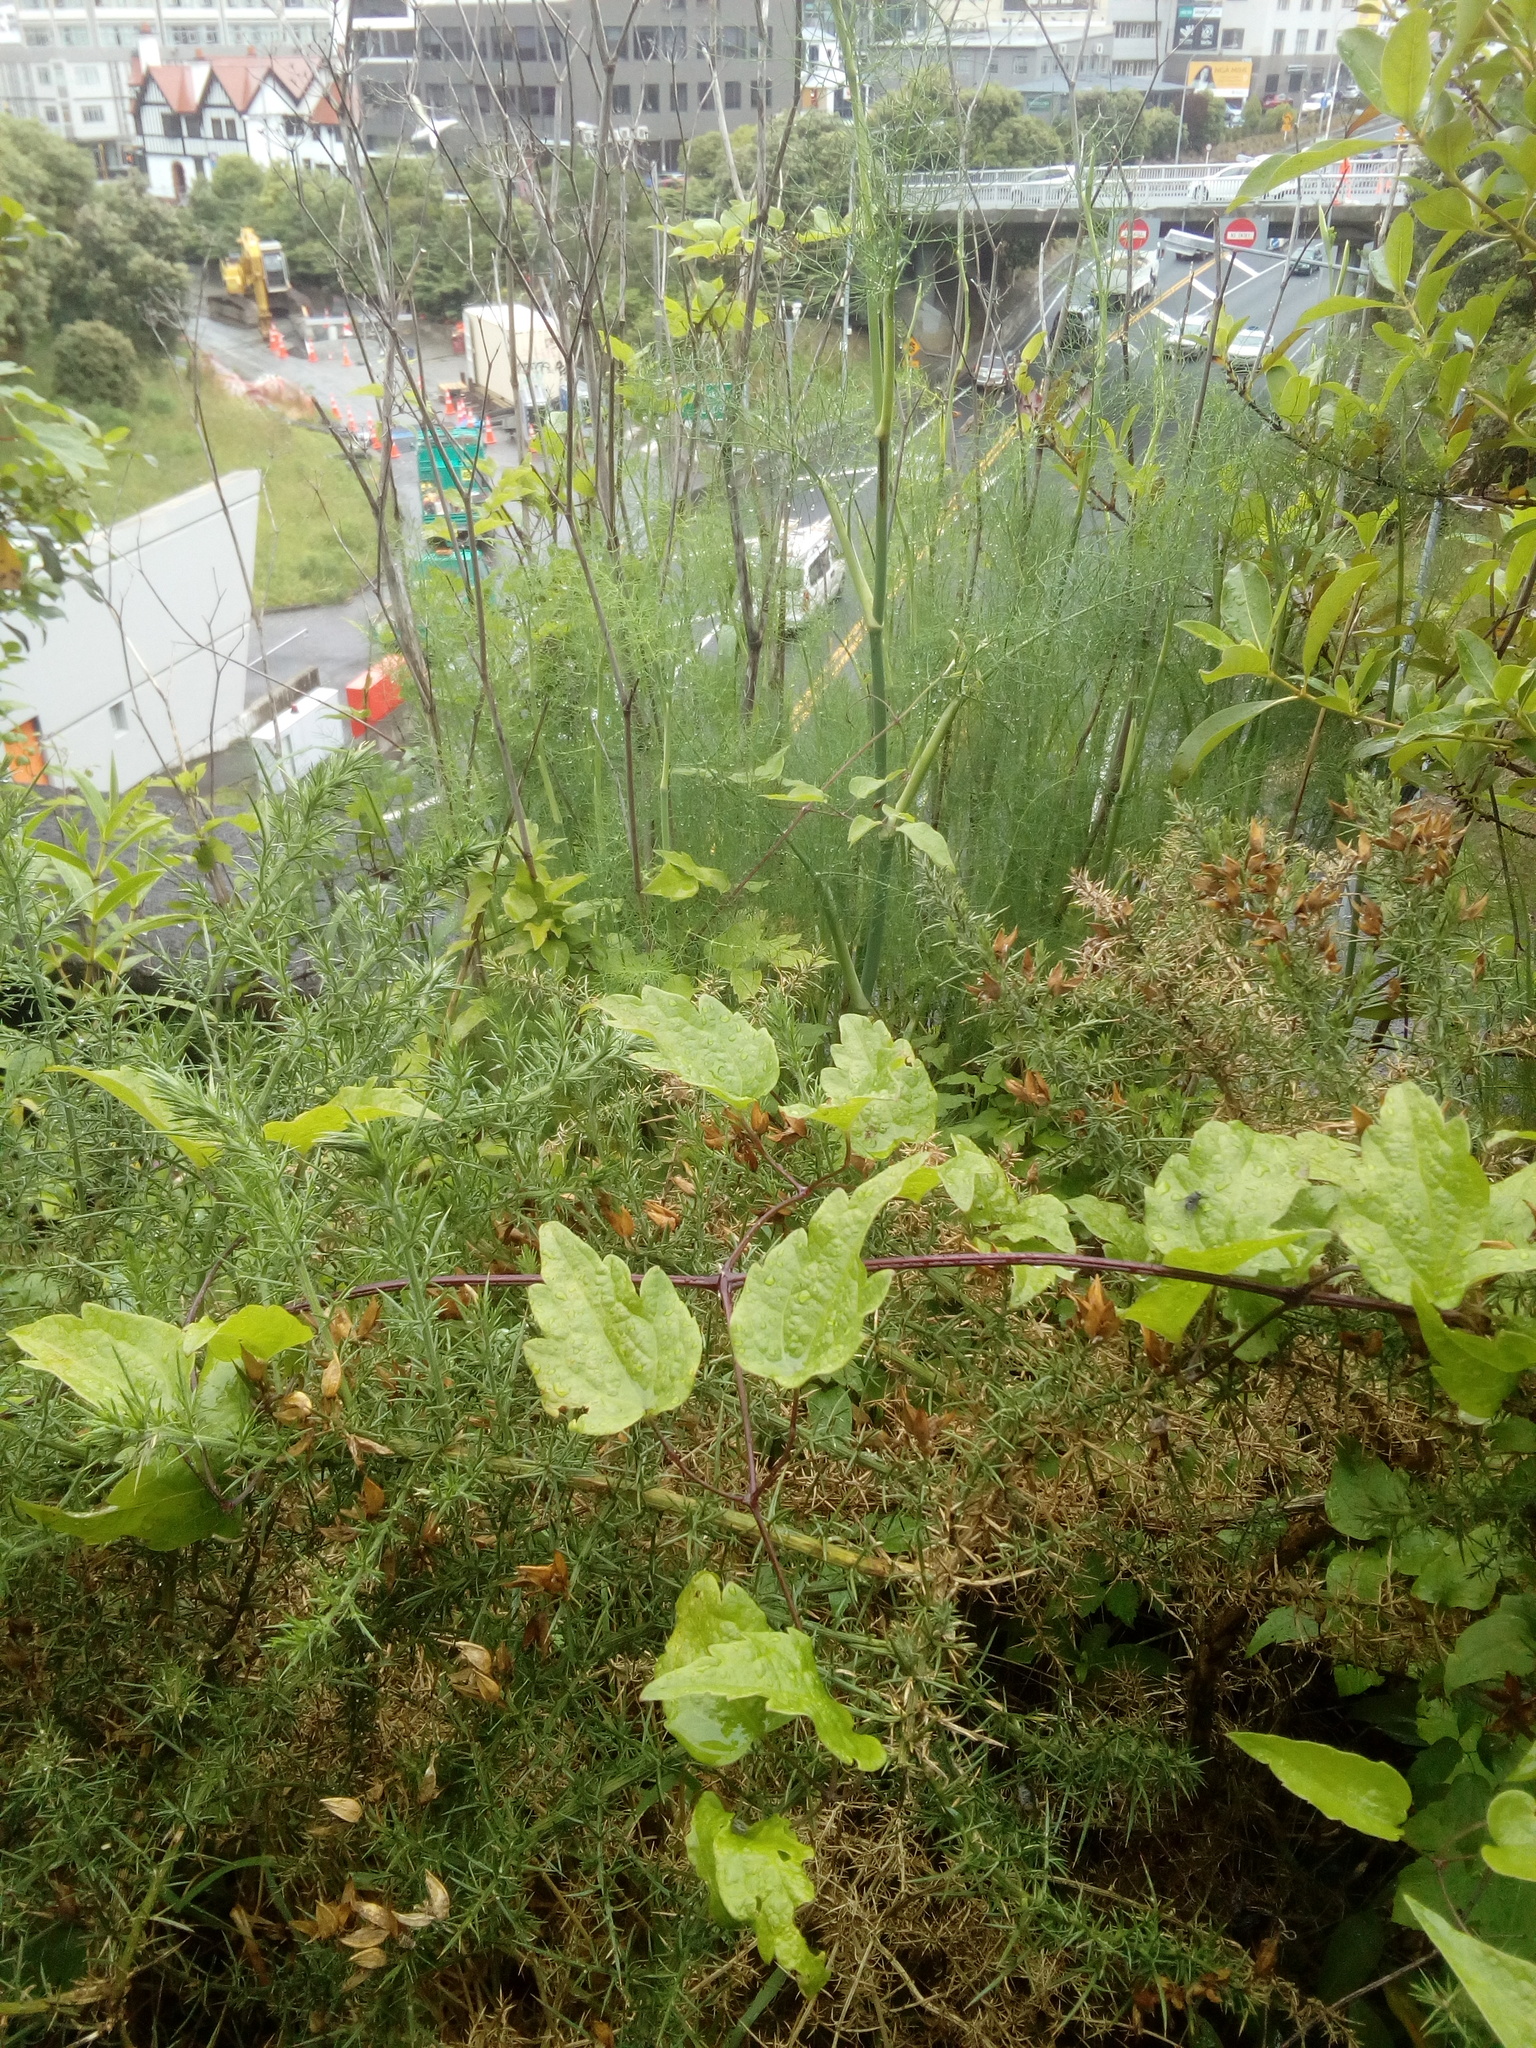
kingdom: Plantae
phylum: Tracheophyta
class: Magnoliopsida
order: Ranunculales
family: Ranunculaceae
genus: Clematis
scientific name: Clematis vitalba
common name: Evergreen clematis
